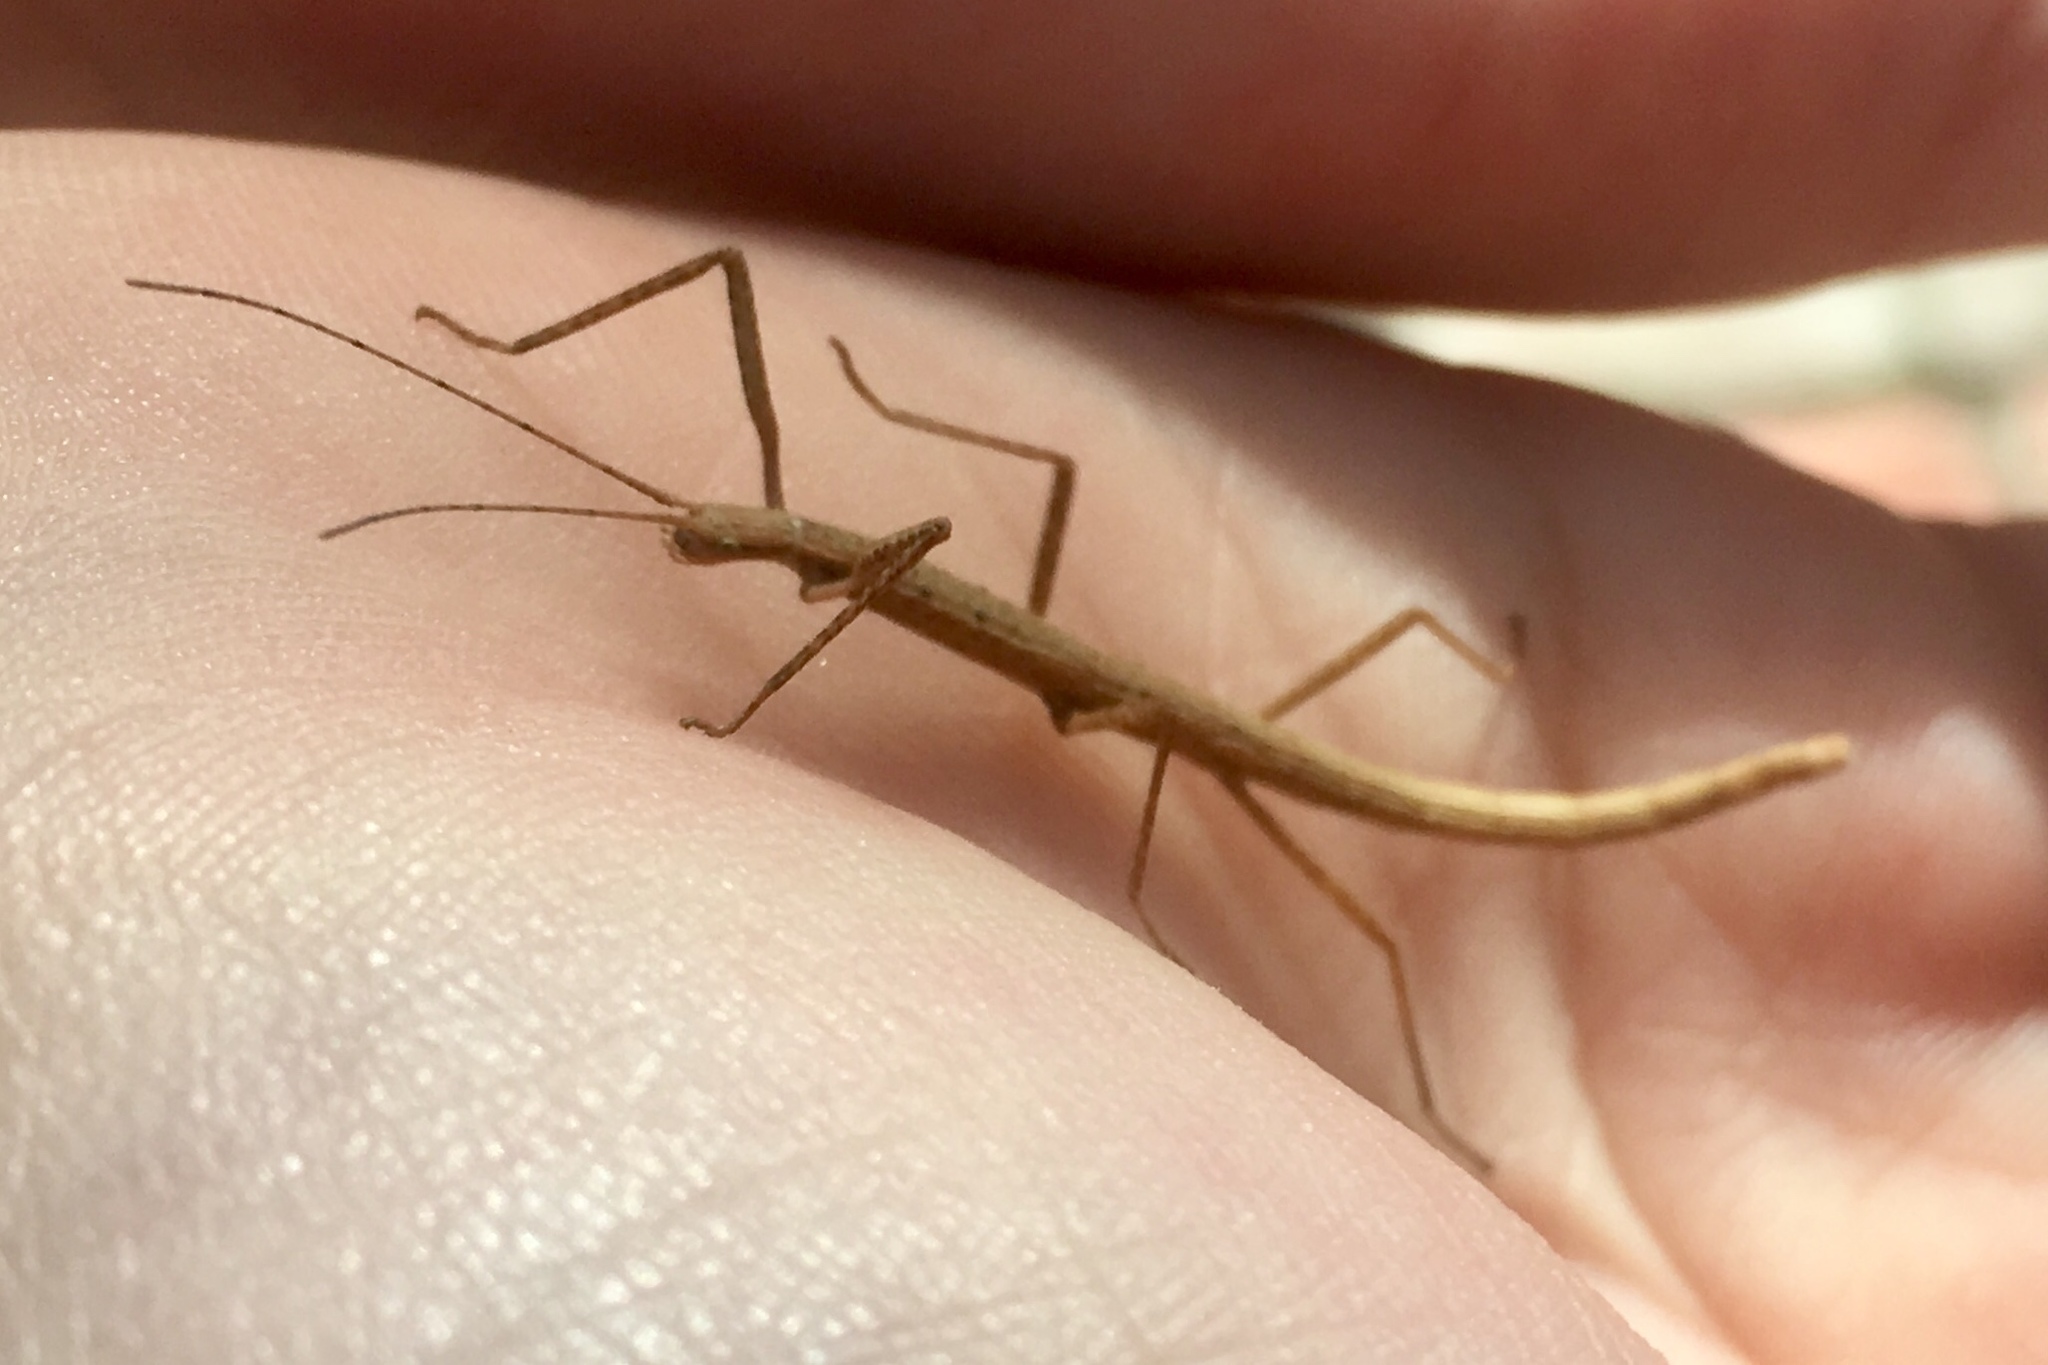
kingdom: Animalia
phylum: Arthropoda
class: Insecta
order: Phasmida
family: Lonchodidae
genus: Carausius
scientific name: Carausius morosus
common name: Indian stick insect
